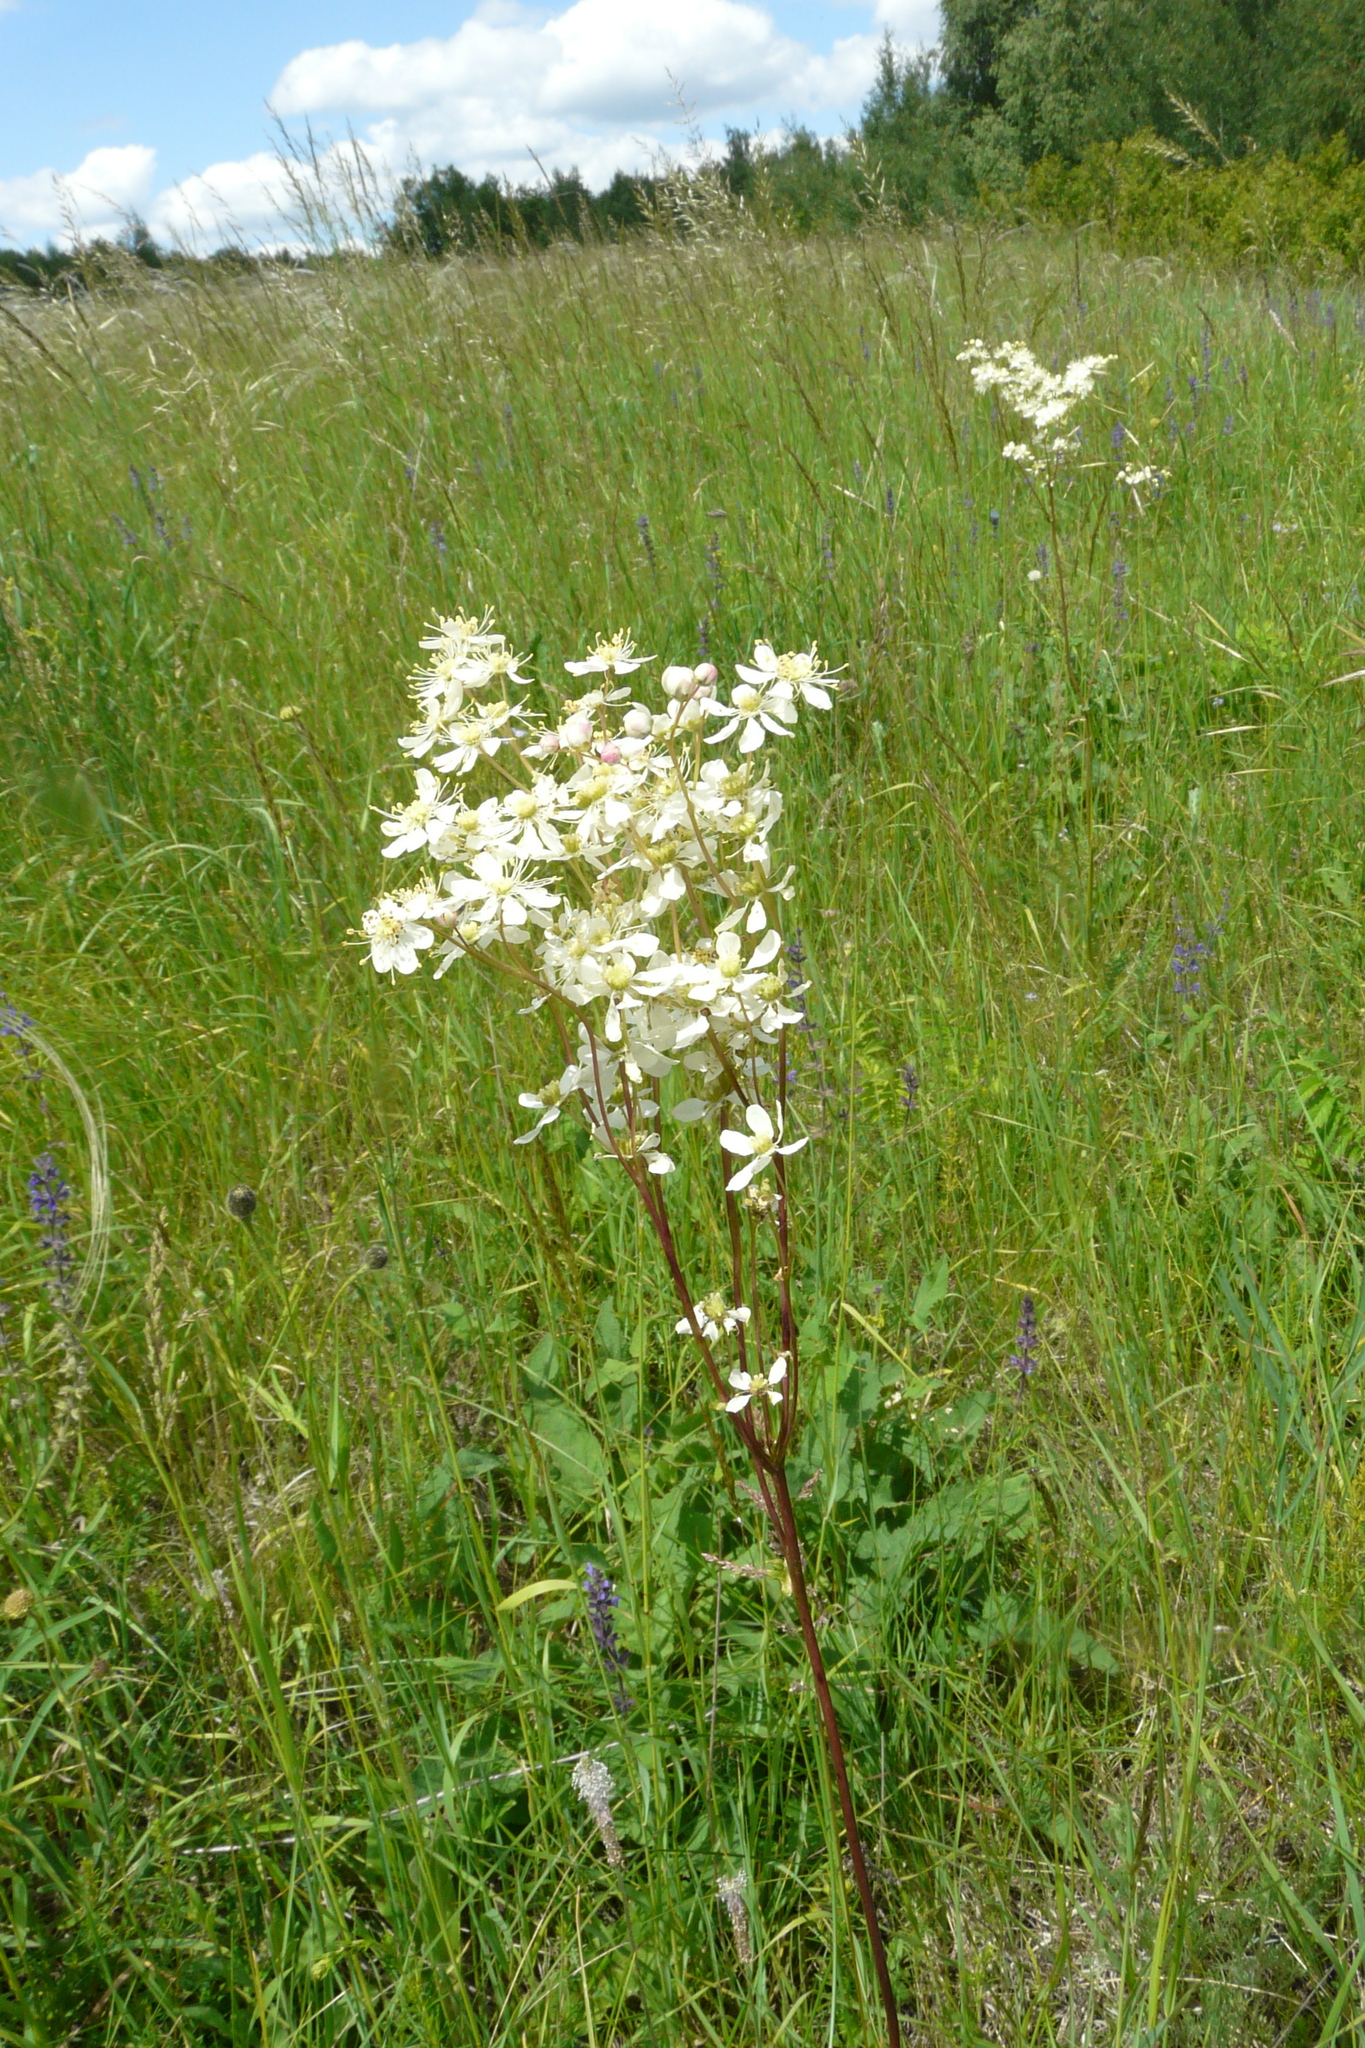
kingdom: Plantae
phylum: Tracheophyta
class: Magnoliopsida
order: Rosales
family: Rosaceae
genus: Filipendula
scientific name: Filipendula vulgaris
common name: Dropwort
